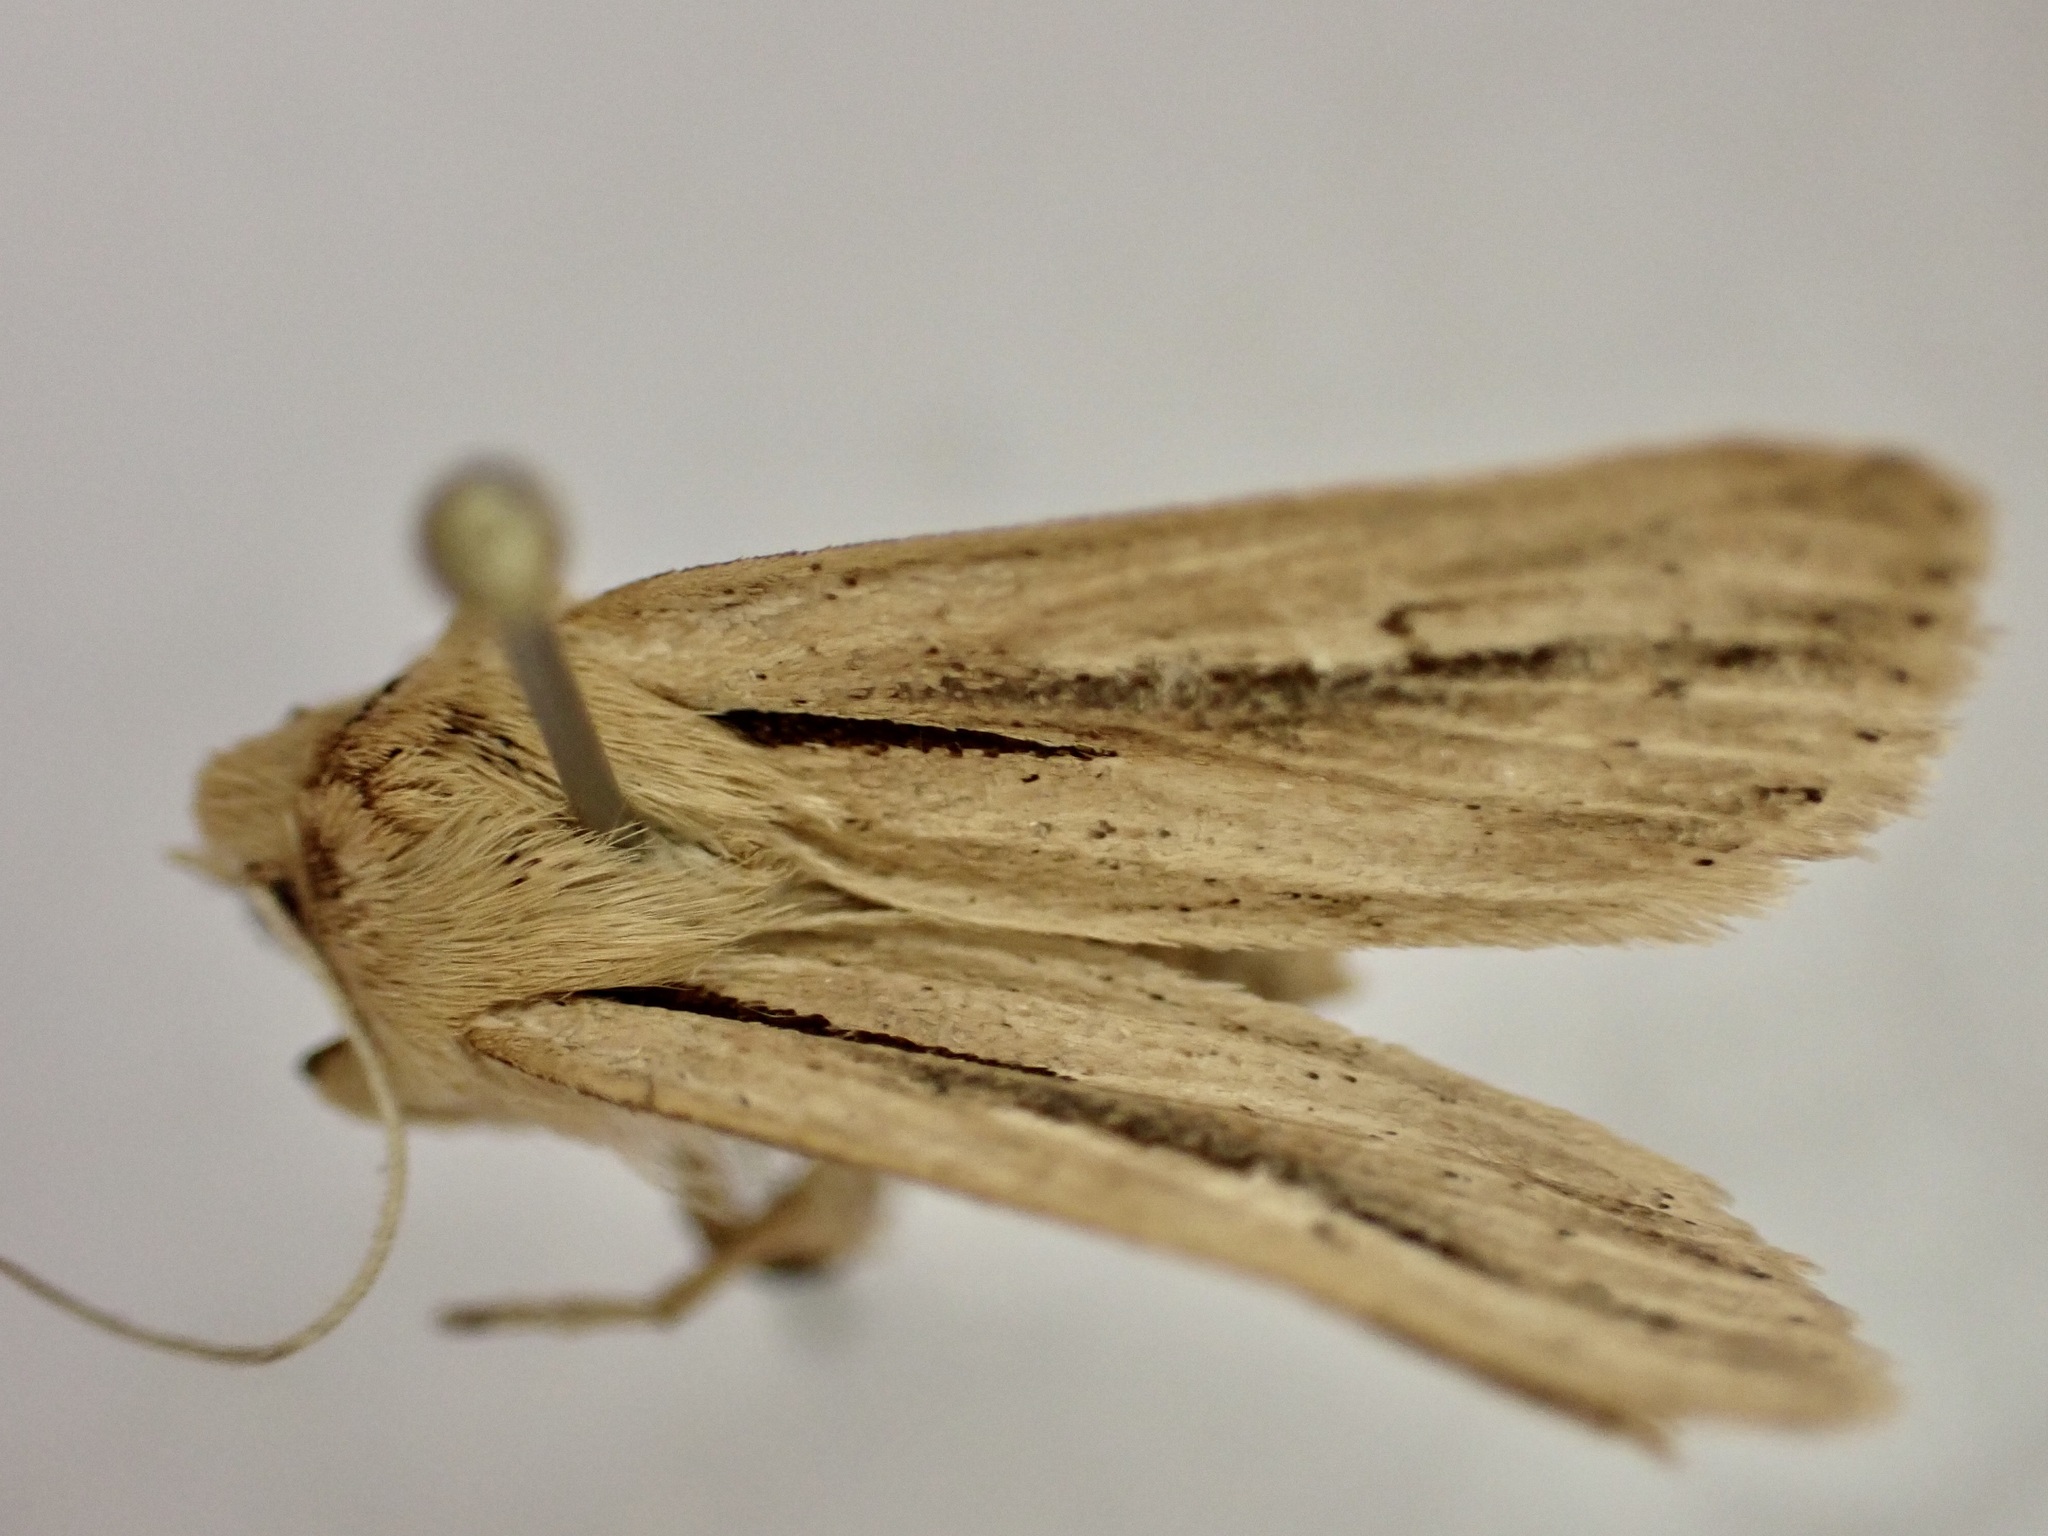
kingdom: Animalia
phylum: Arthropoda
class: Insecta
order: Lepidoptera
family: Noctuidae
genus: Ichneutica
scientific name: Ichneutica propria
